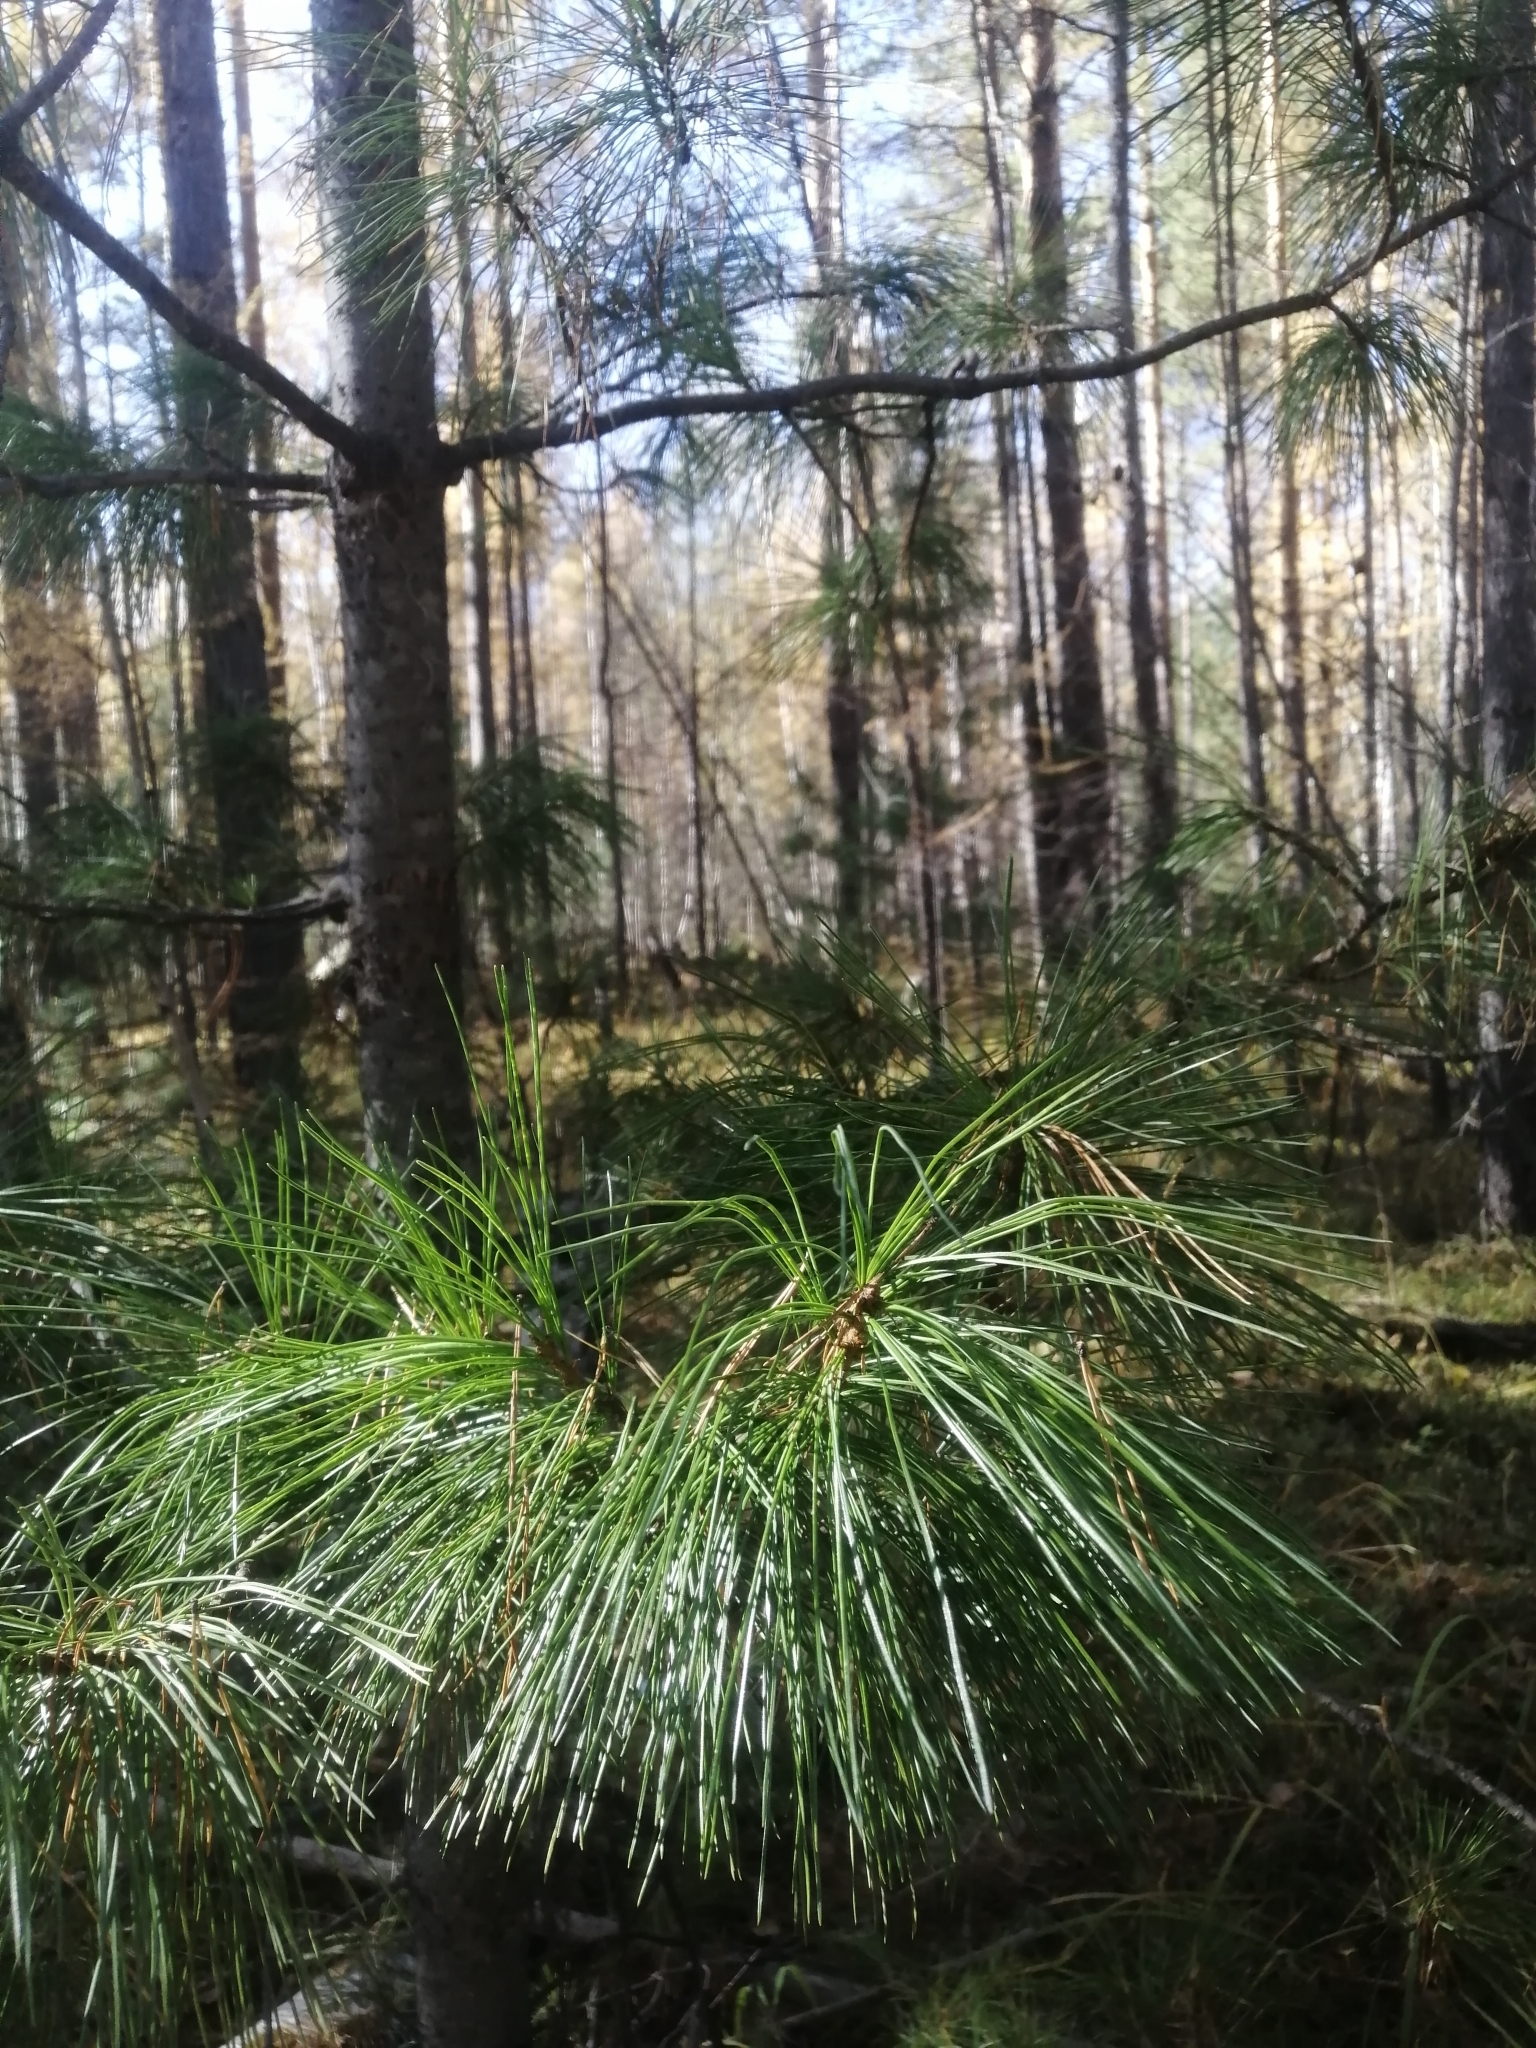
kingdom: Plantae
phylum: Tracheophyta
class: Pinopsida
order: Pinales
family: Pinaceae
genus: Pinus
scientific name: Pinus sibirica
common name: Siberian pine
